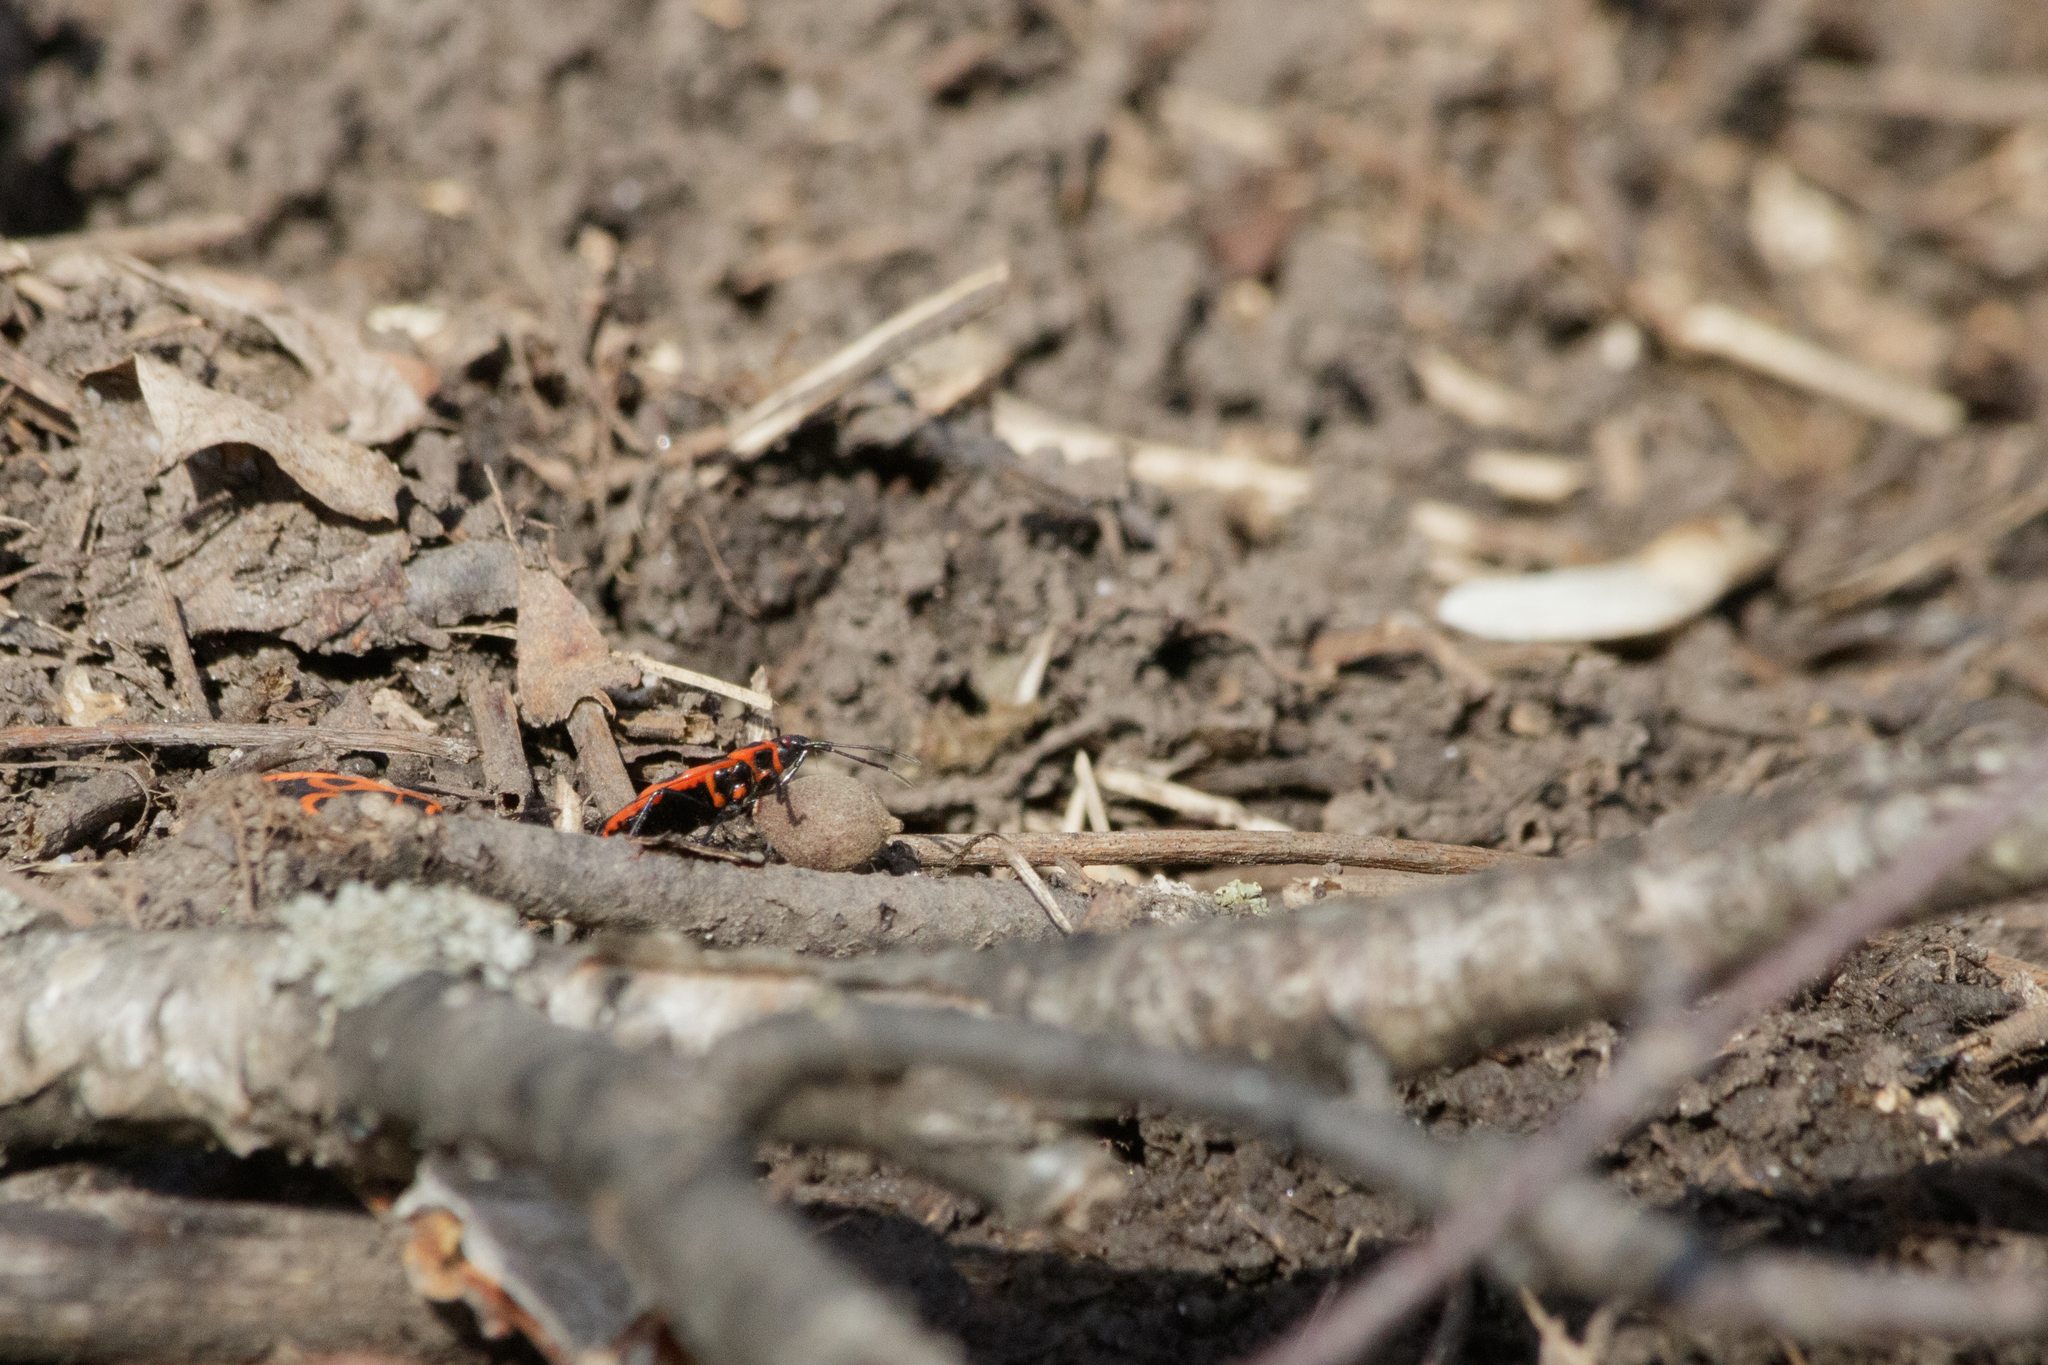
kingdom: Animalia
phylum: Arthropoda
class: Insecta
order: Hemiptera
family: Pyrrhocoridae
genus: Pyrrhocoris
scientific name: Pyrrhocoris apterus
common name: Firebug
